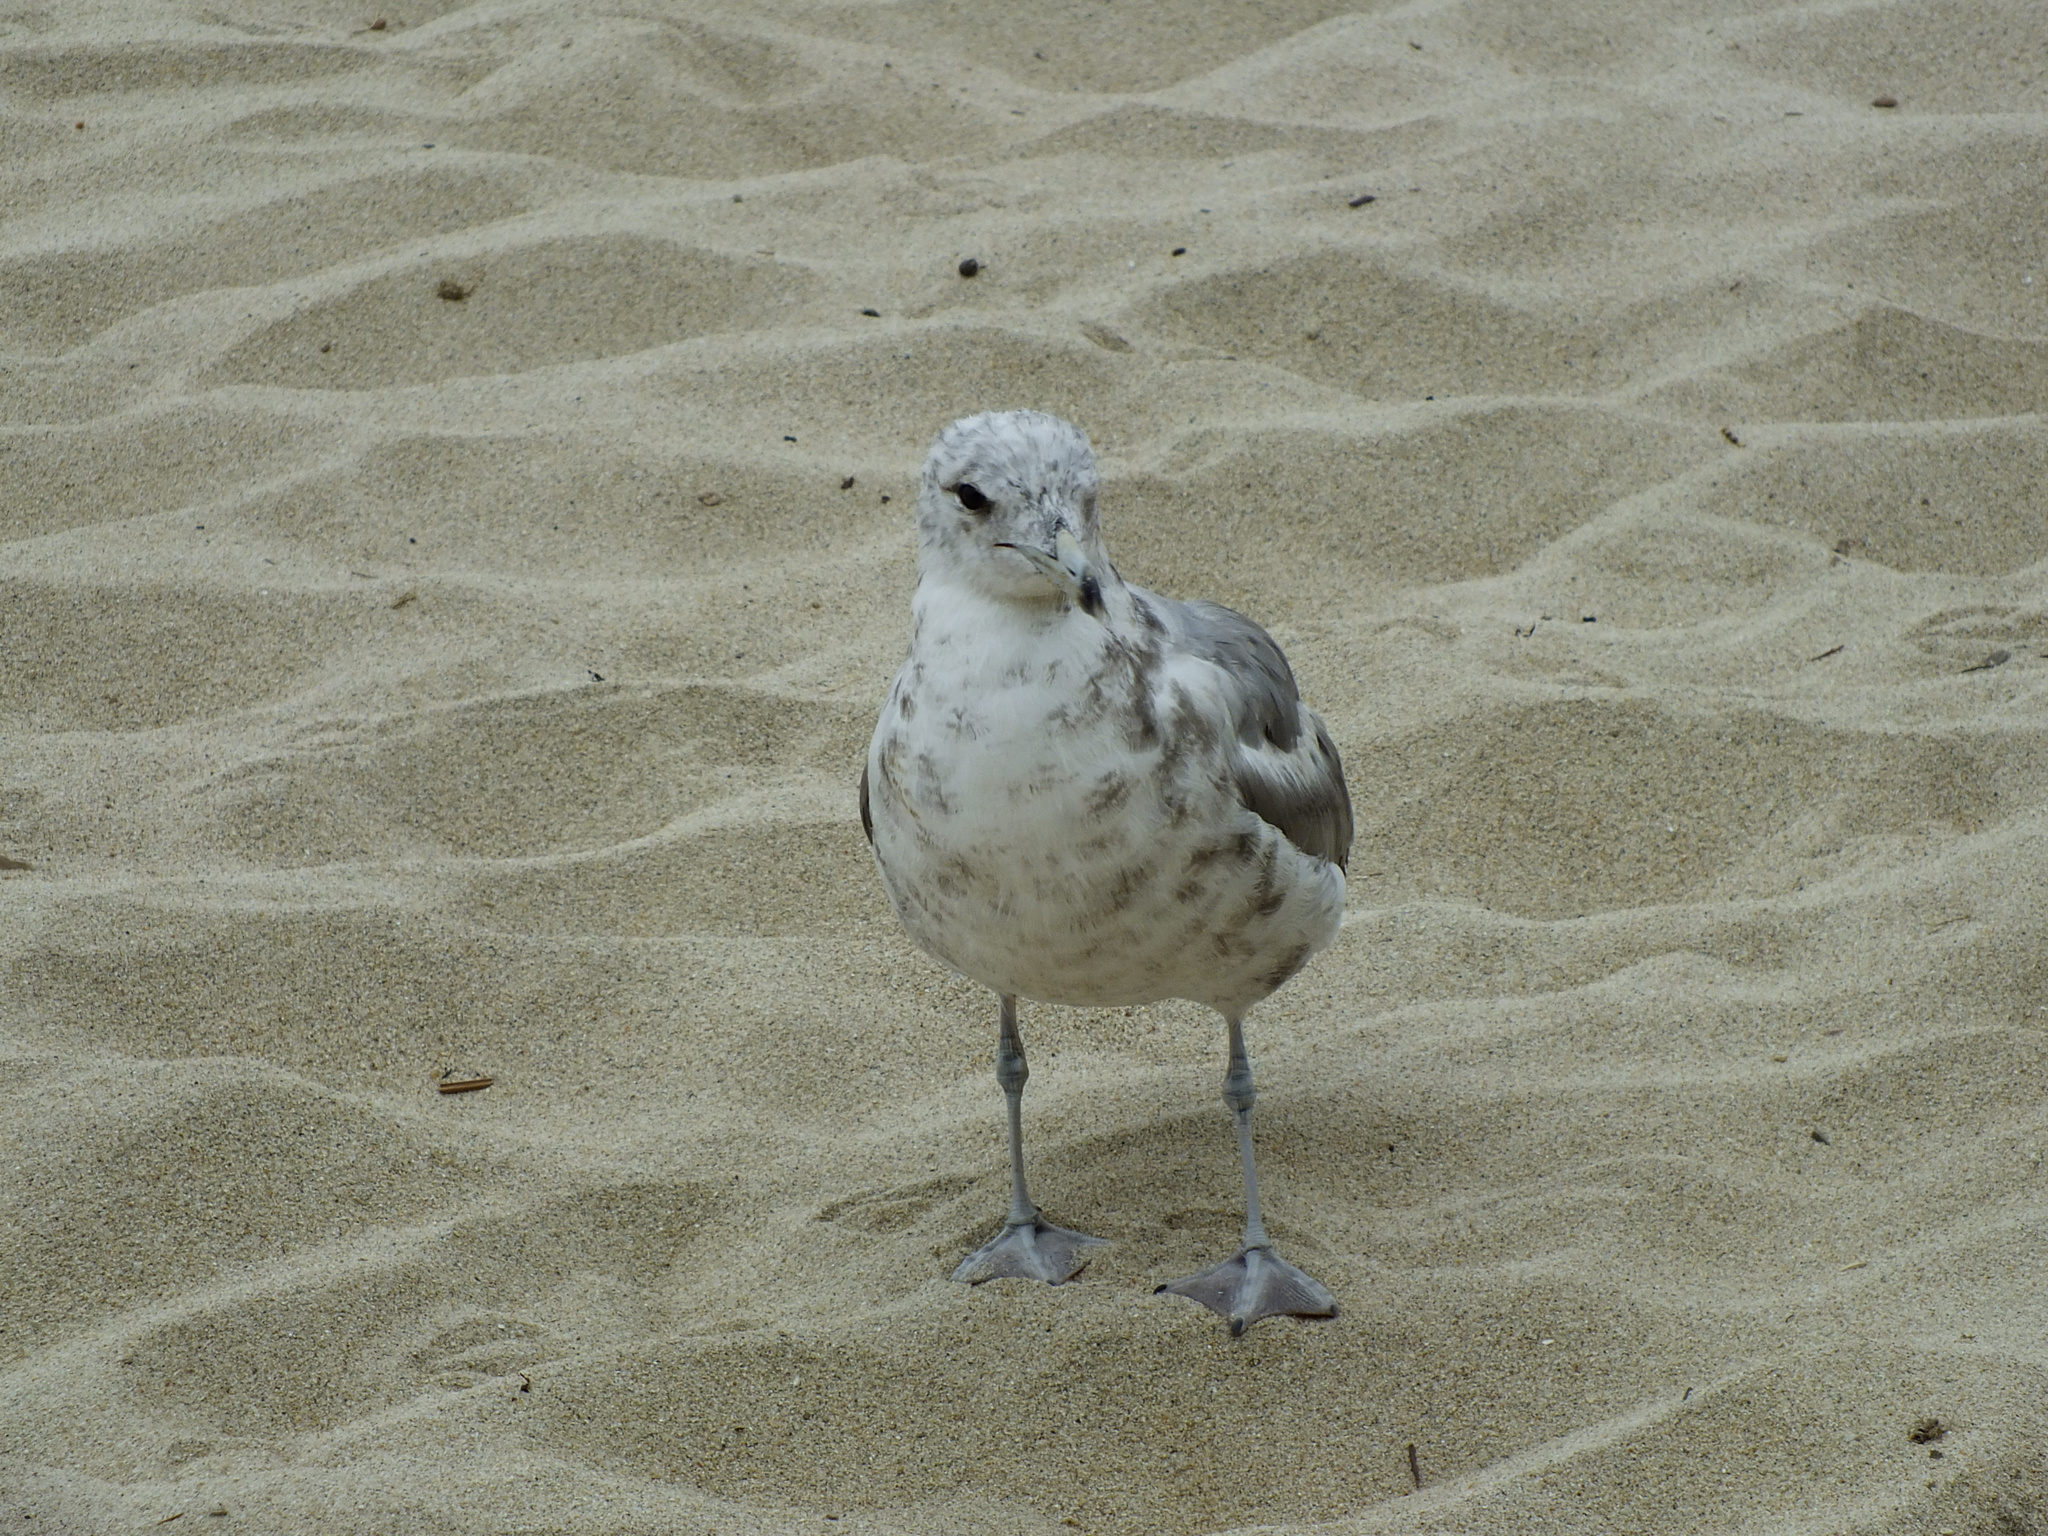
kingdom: Animalia
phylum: Chordata
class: Aves
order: Charadriiformes
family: Laridae
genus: Larus
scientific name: Larus californicus
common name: California gull
